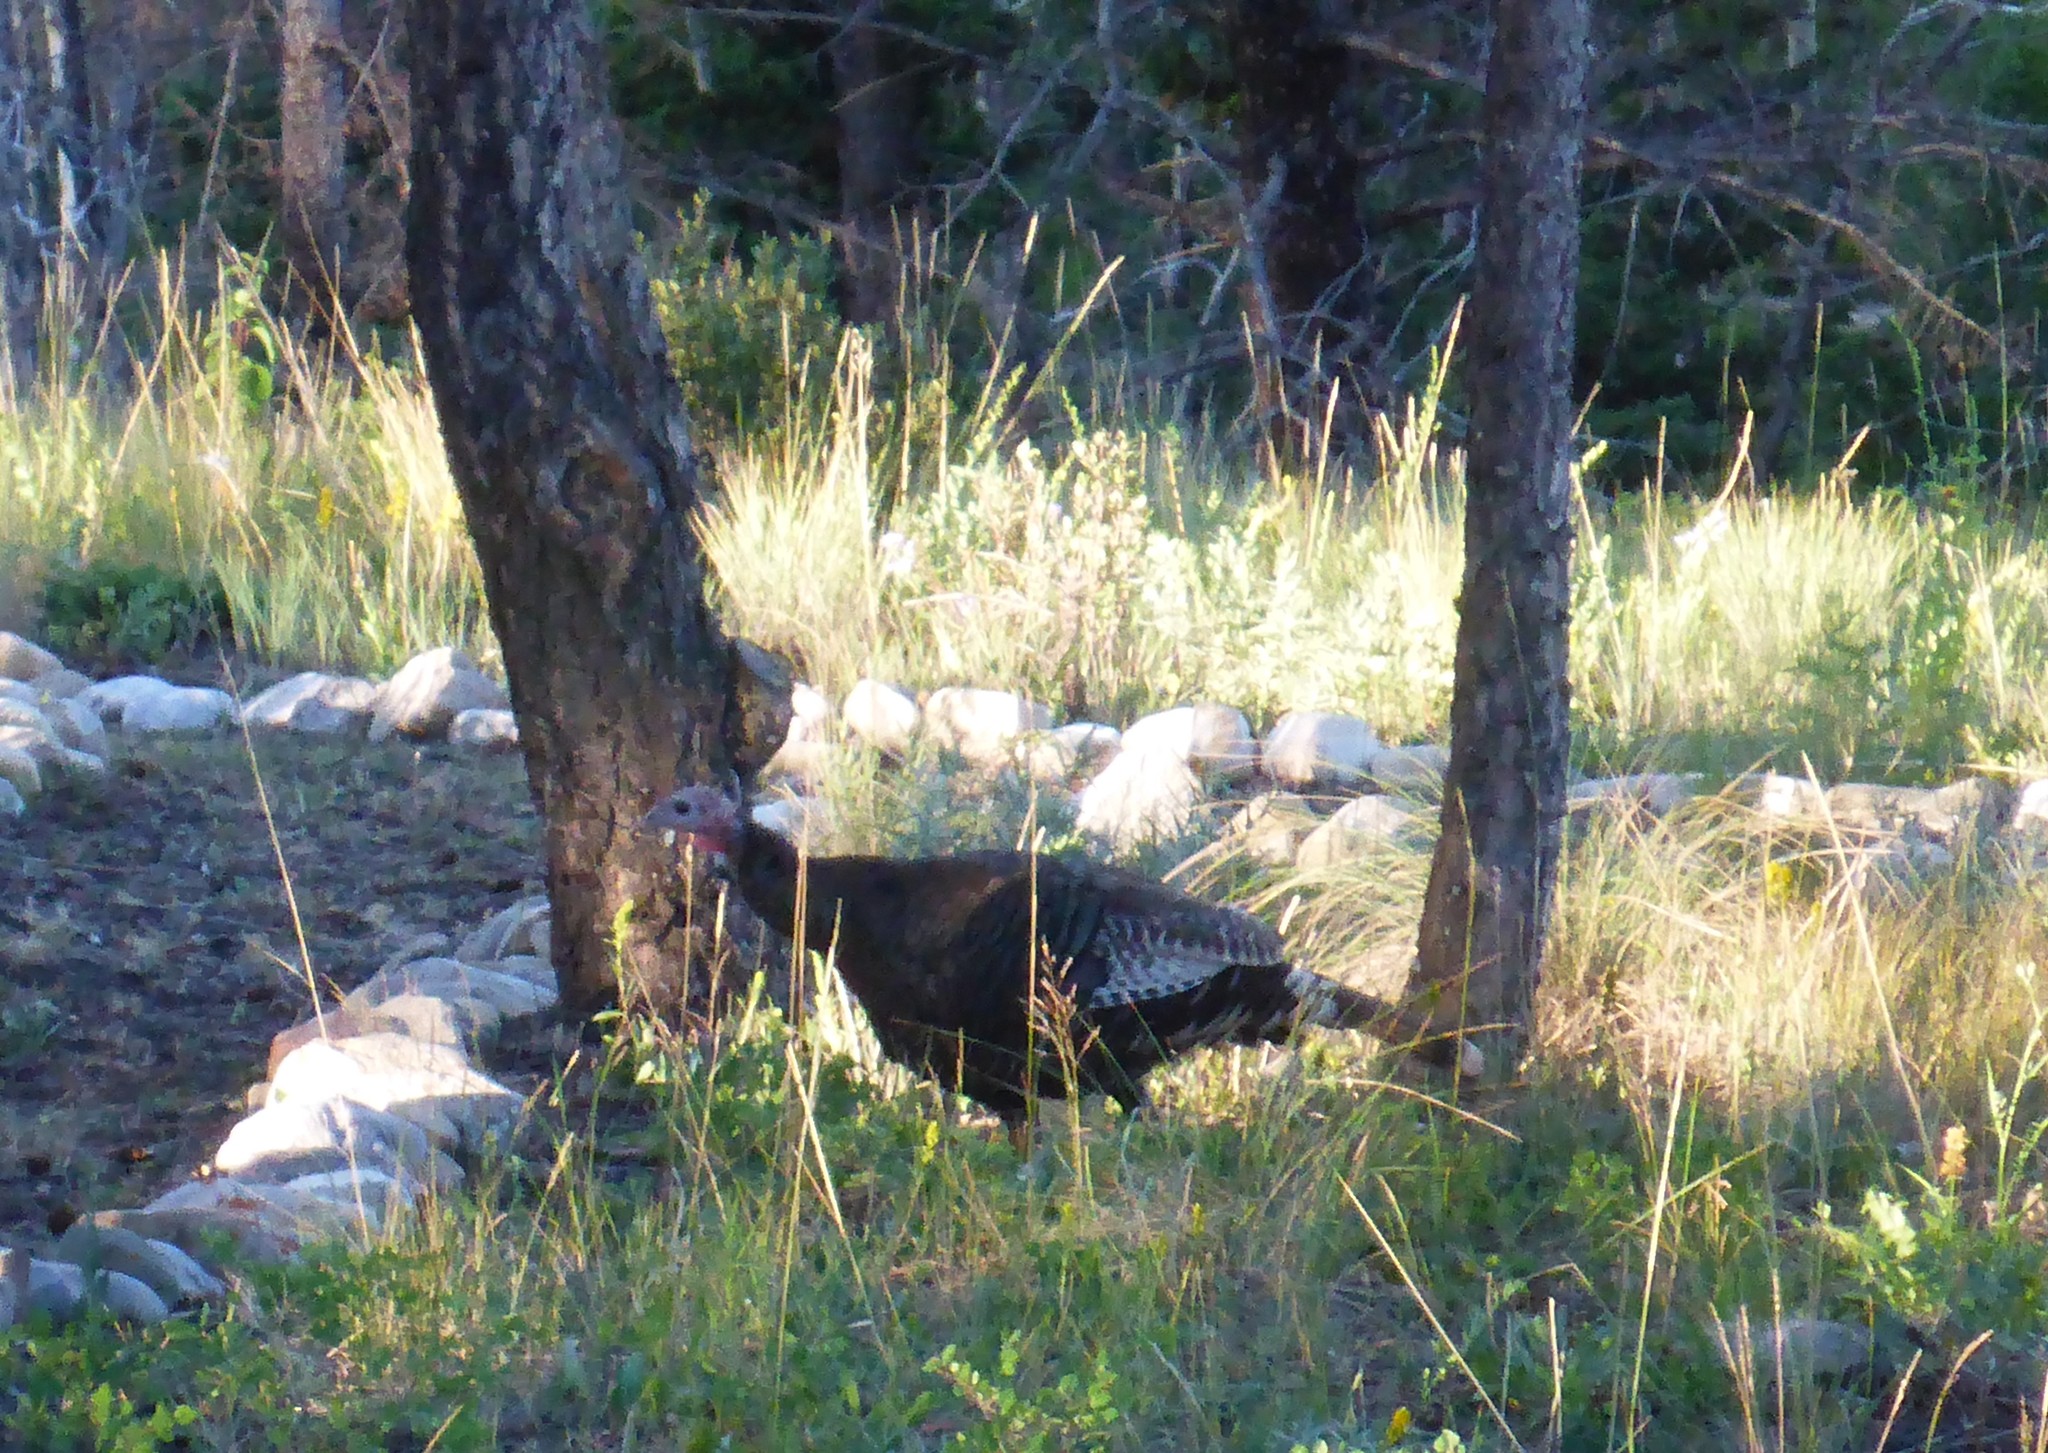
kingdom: Animalia
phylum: Chordata
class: Aves
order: Galliformes
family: Phasianidae
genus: Meleagris
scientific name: Meleagris gallopavo
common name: Wild turkey
